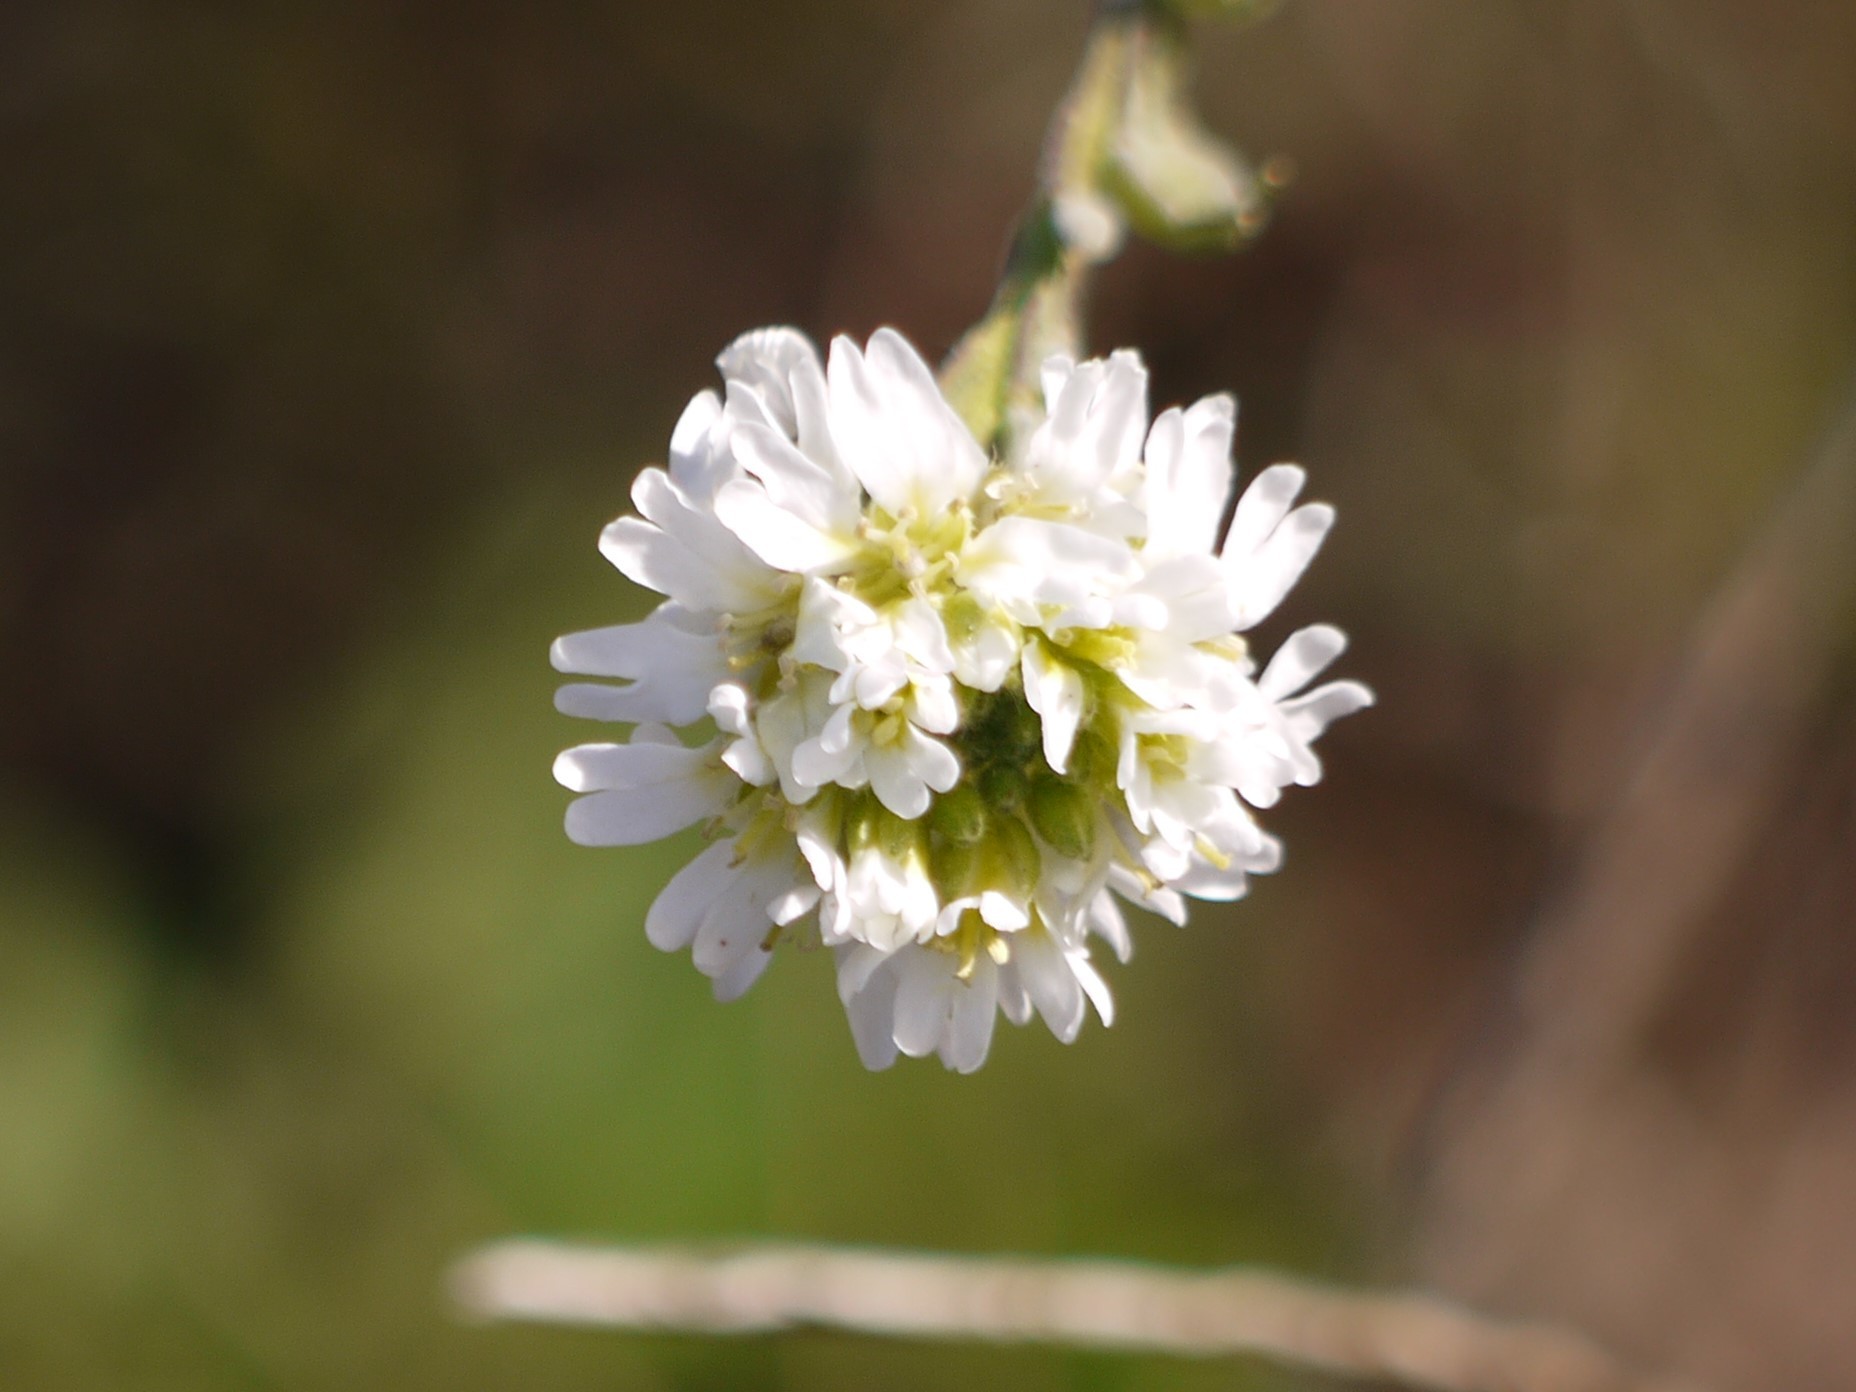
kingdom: Plantae
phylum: Tracheophyta
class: Magnoliopsida
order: Brassicales
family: Brassicaceae
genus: Berteroa
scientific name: Berteroa incana
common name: Hoary alison
